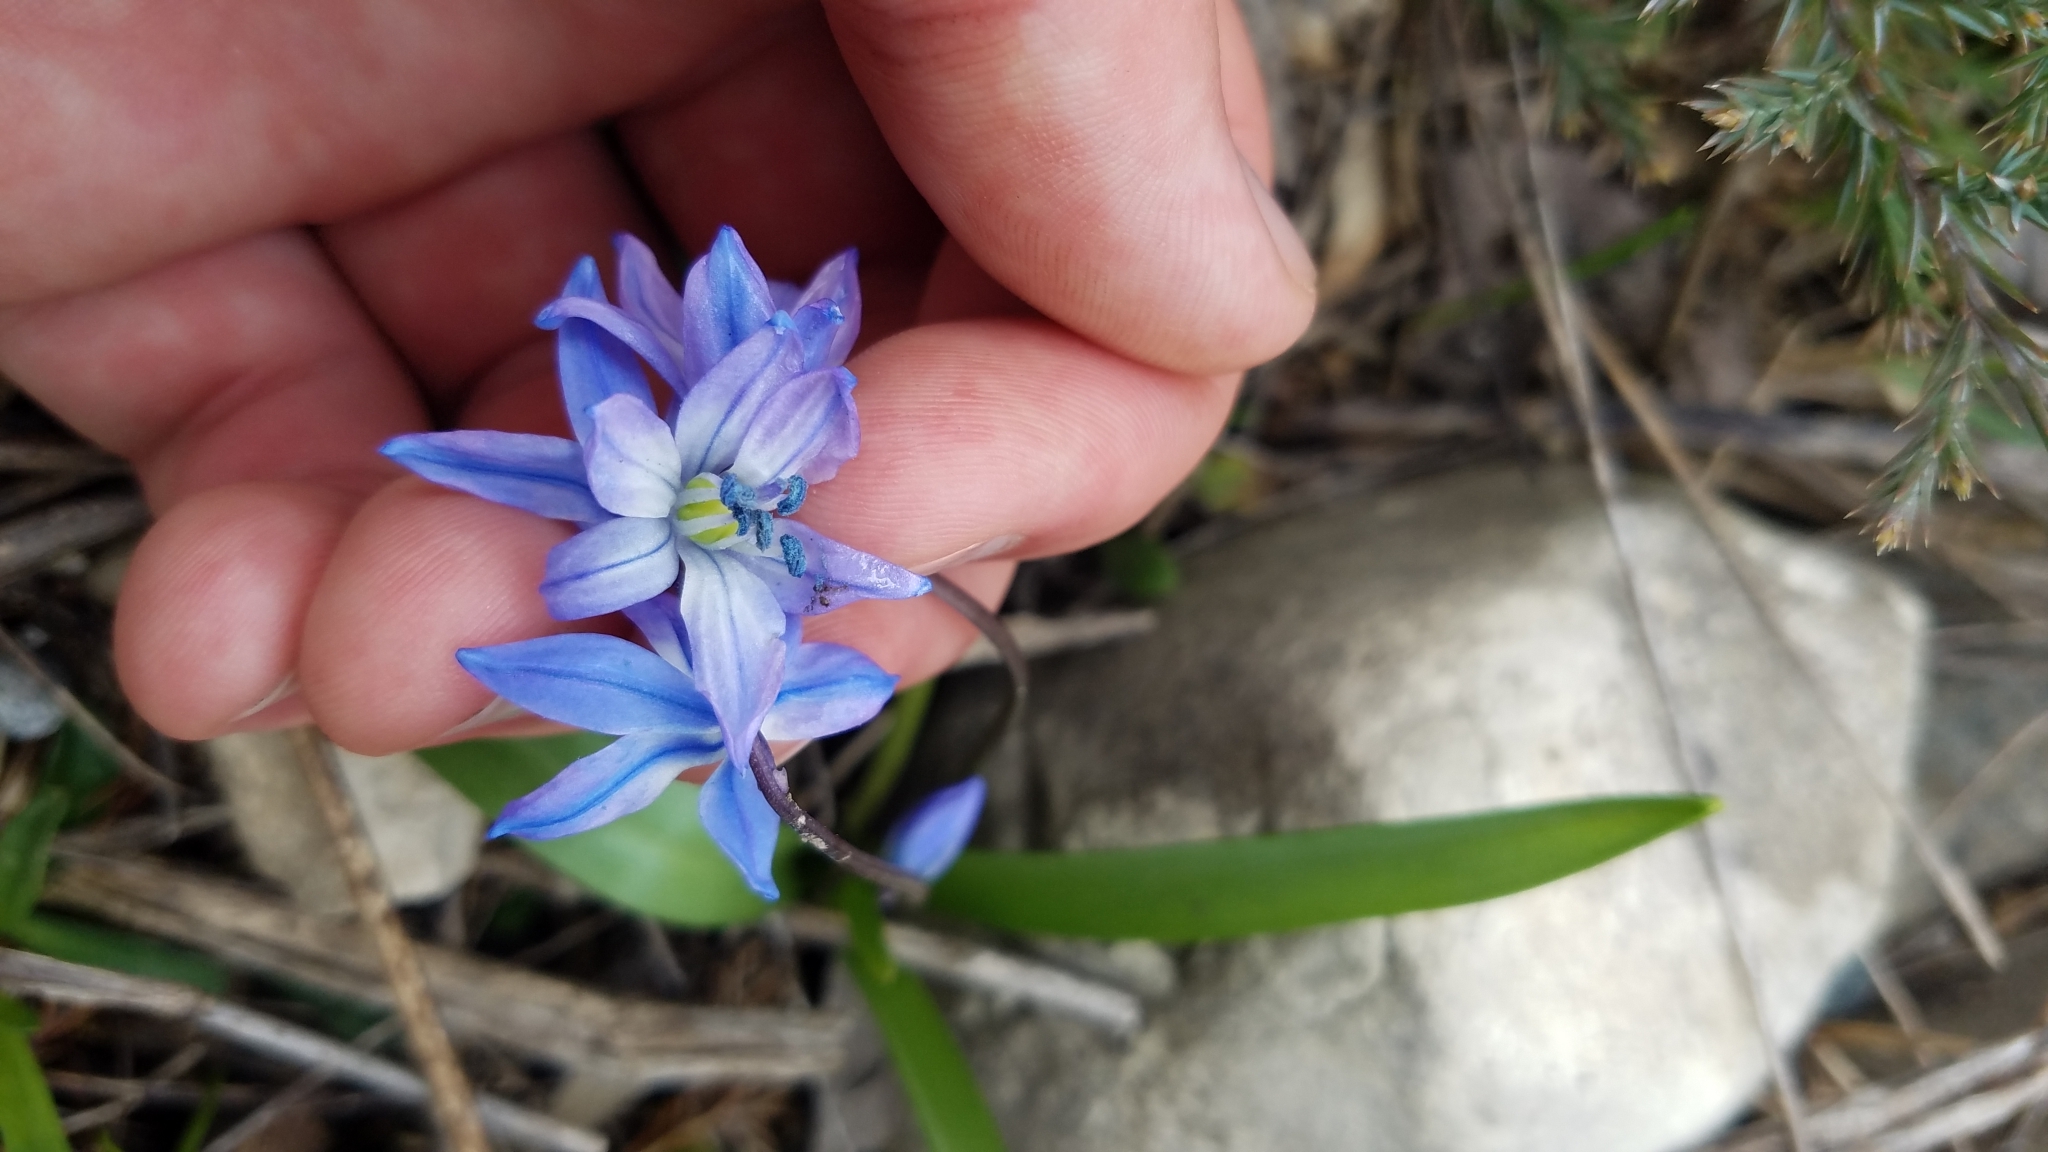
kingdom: Plantae
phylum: Tracheophyta
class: Liliopsida
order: Asparagales
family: Asparagaceae
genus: Scilla
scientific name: Scilla siberica
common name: Siberian squill
